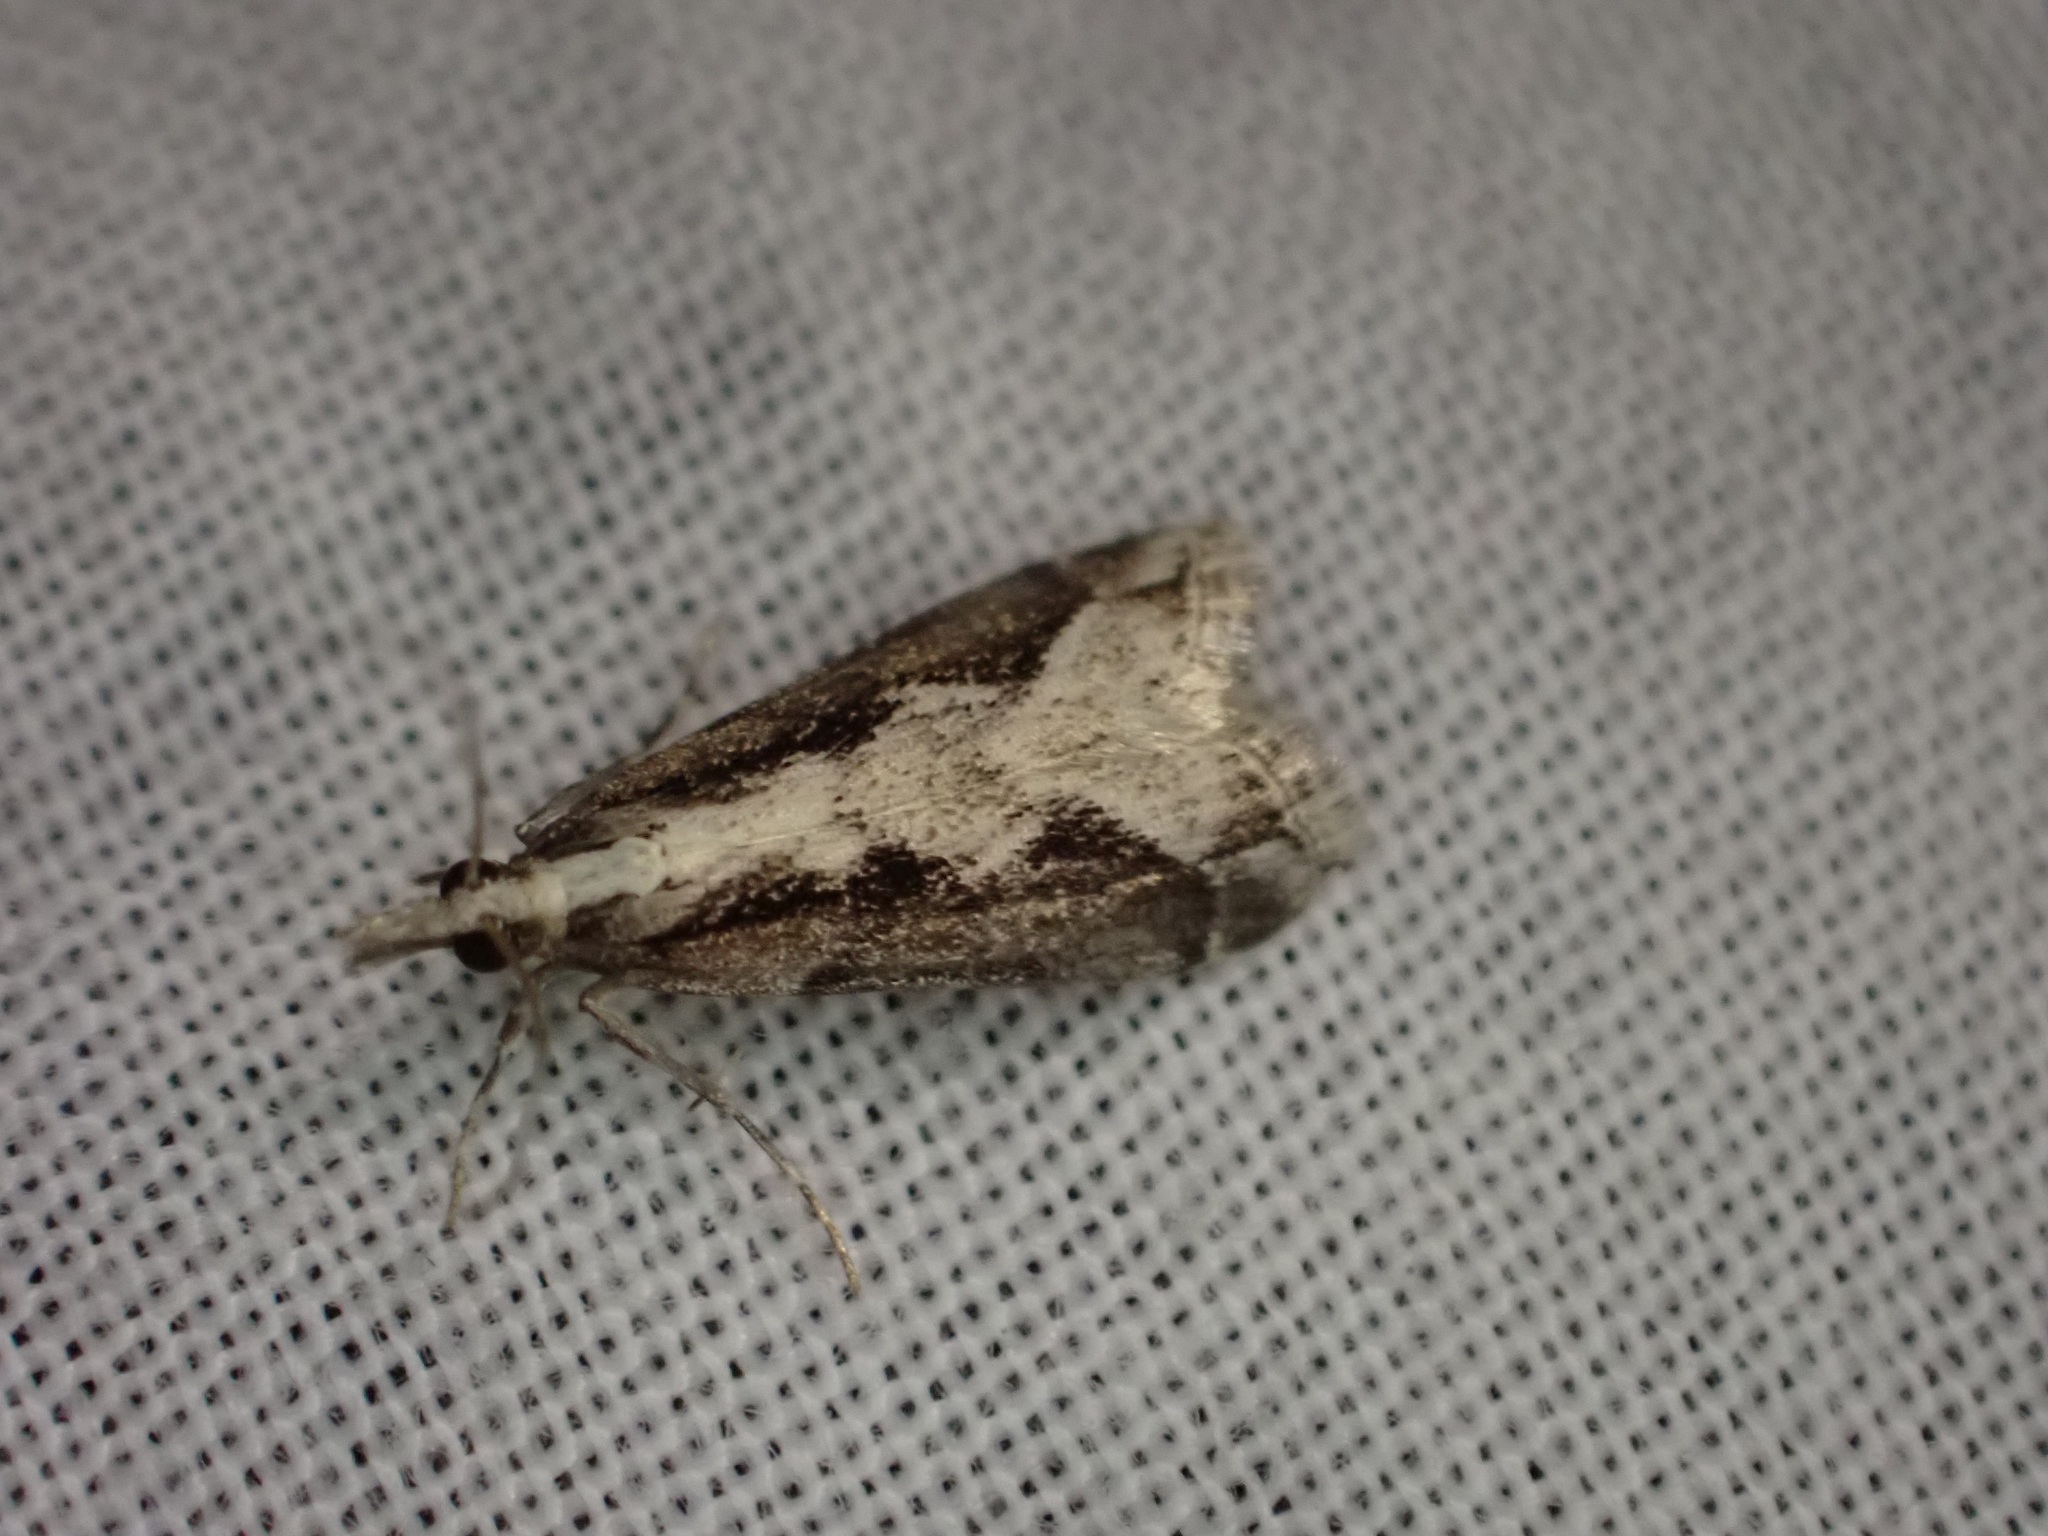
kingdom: Animalia
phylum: Arthropoda
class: Insecta
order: Lepidoptera
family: Crambidae
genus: Eudonia
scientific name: Eudonia steropaea
